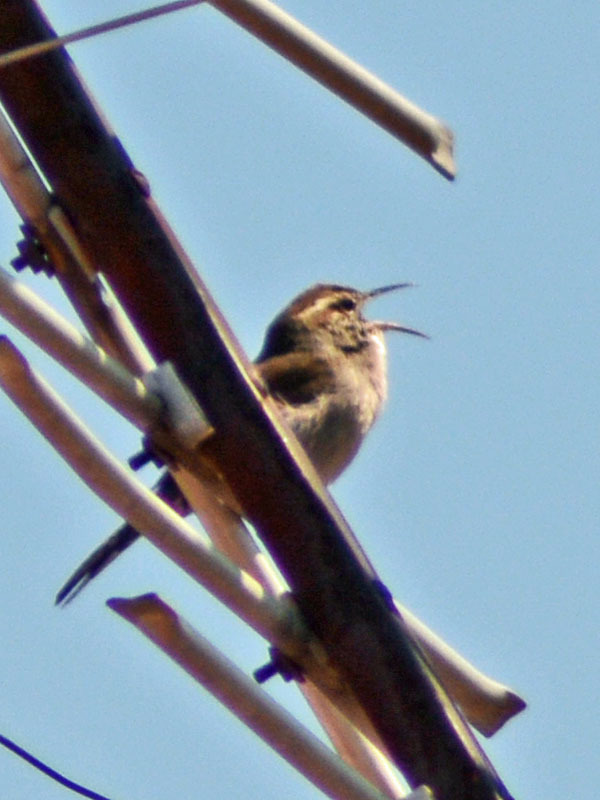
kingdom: Animalia
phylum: Chordata
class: Aves
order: Passeriformes
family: Troglodytidae
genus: Thryomanes
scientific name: Thryomanes bewickii
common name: Bewick's wren
